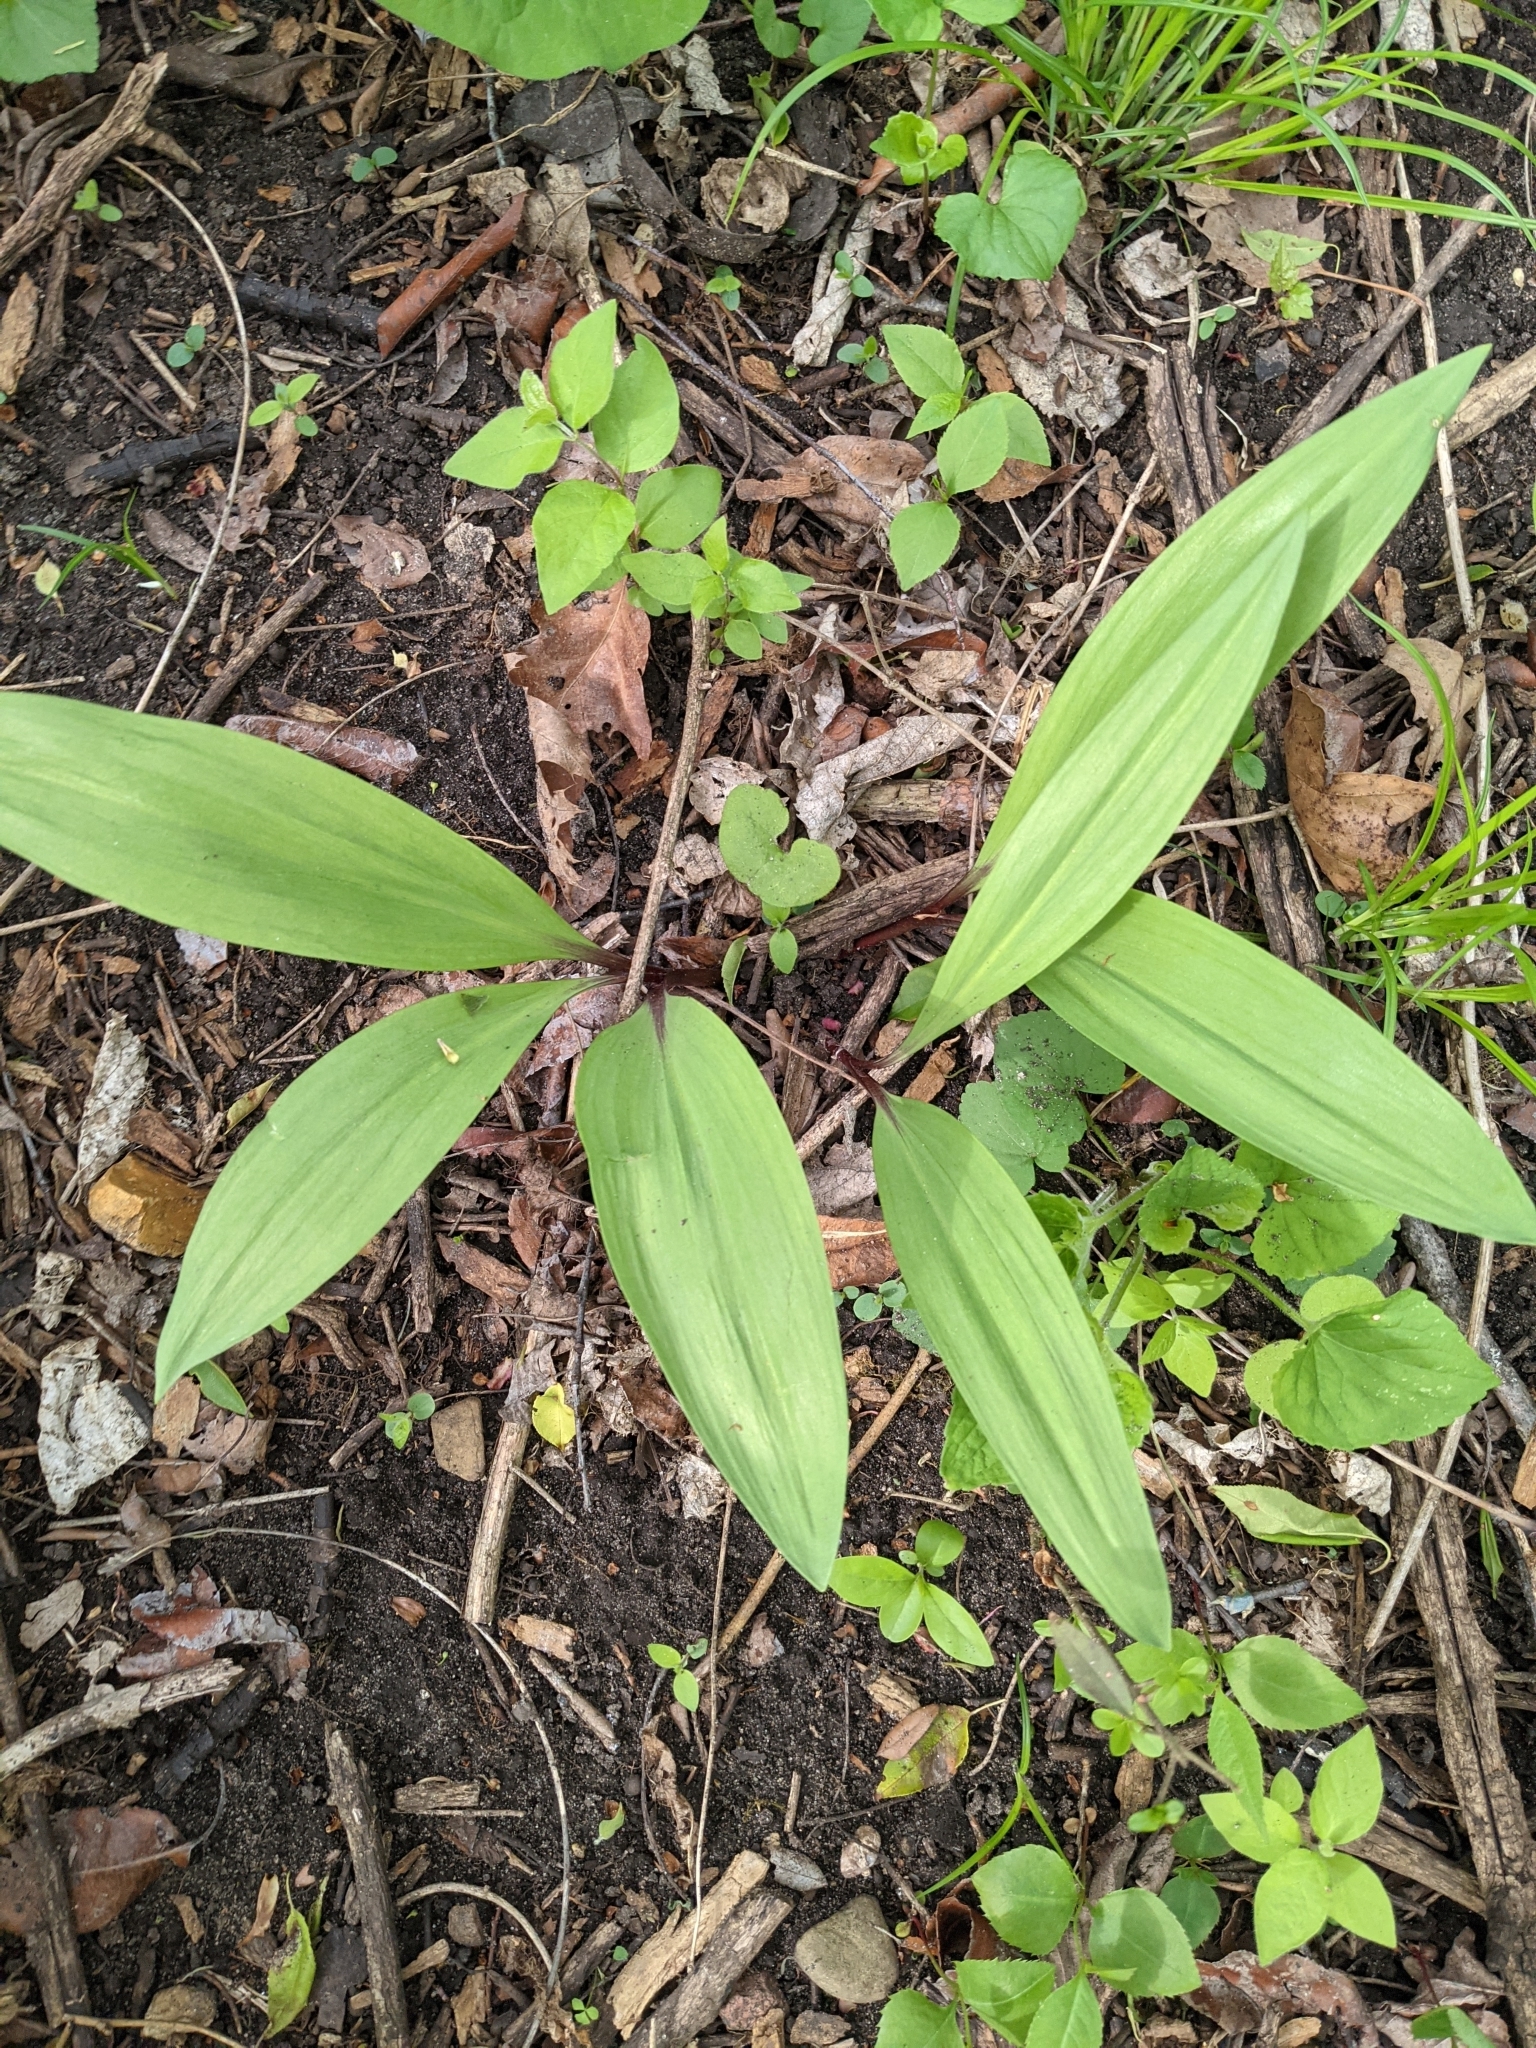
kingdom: Plantae
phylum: Tracheophyta
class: Liliopsida
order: Asparagales
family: Amaryllidaceae
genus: Allium
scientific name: Allium tricoccum
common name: Ramp
